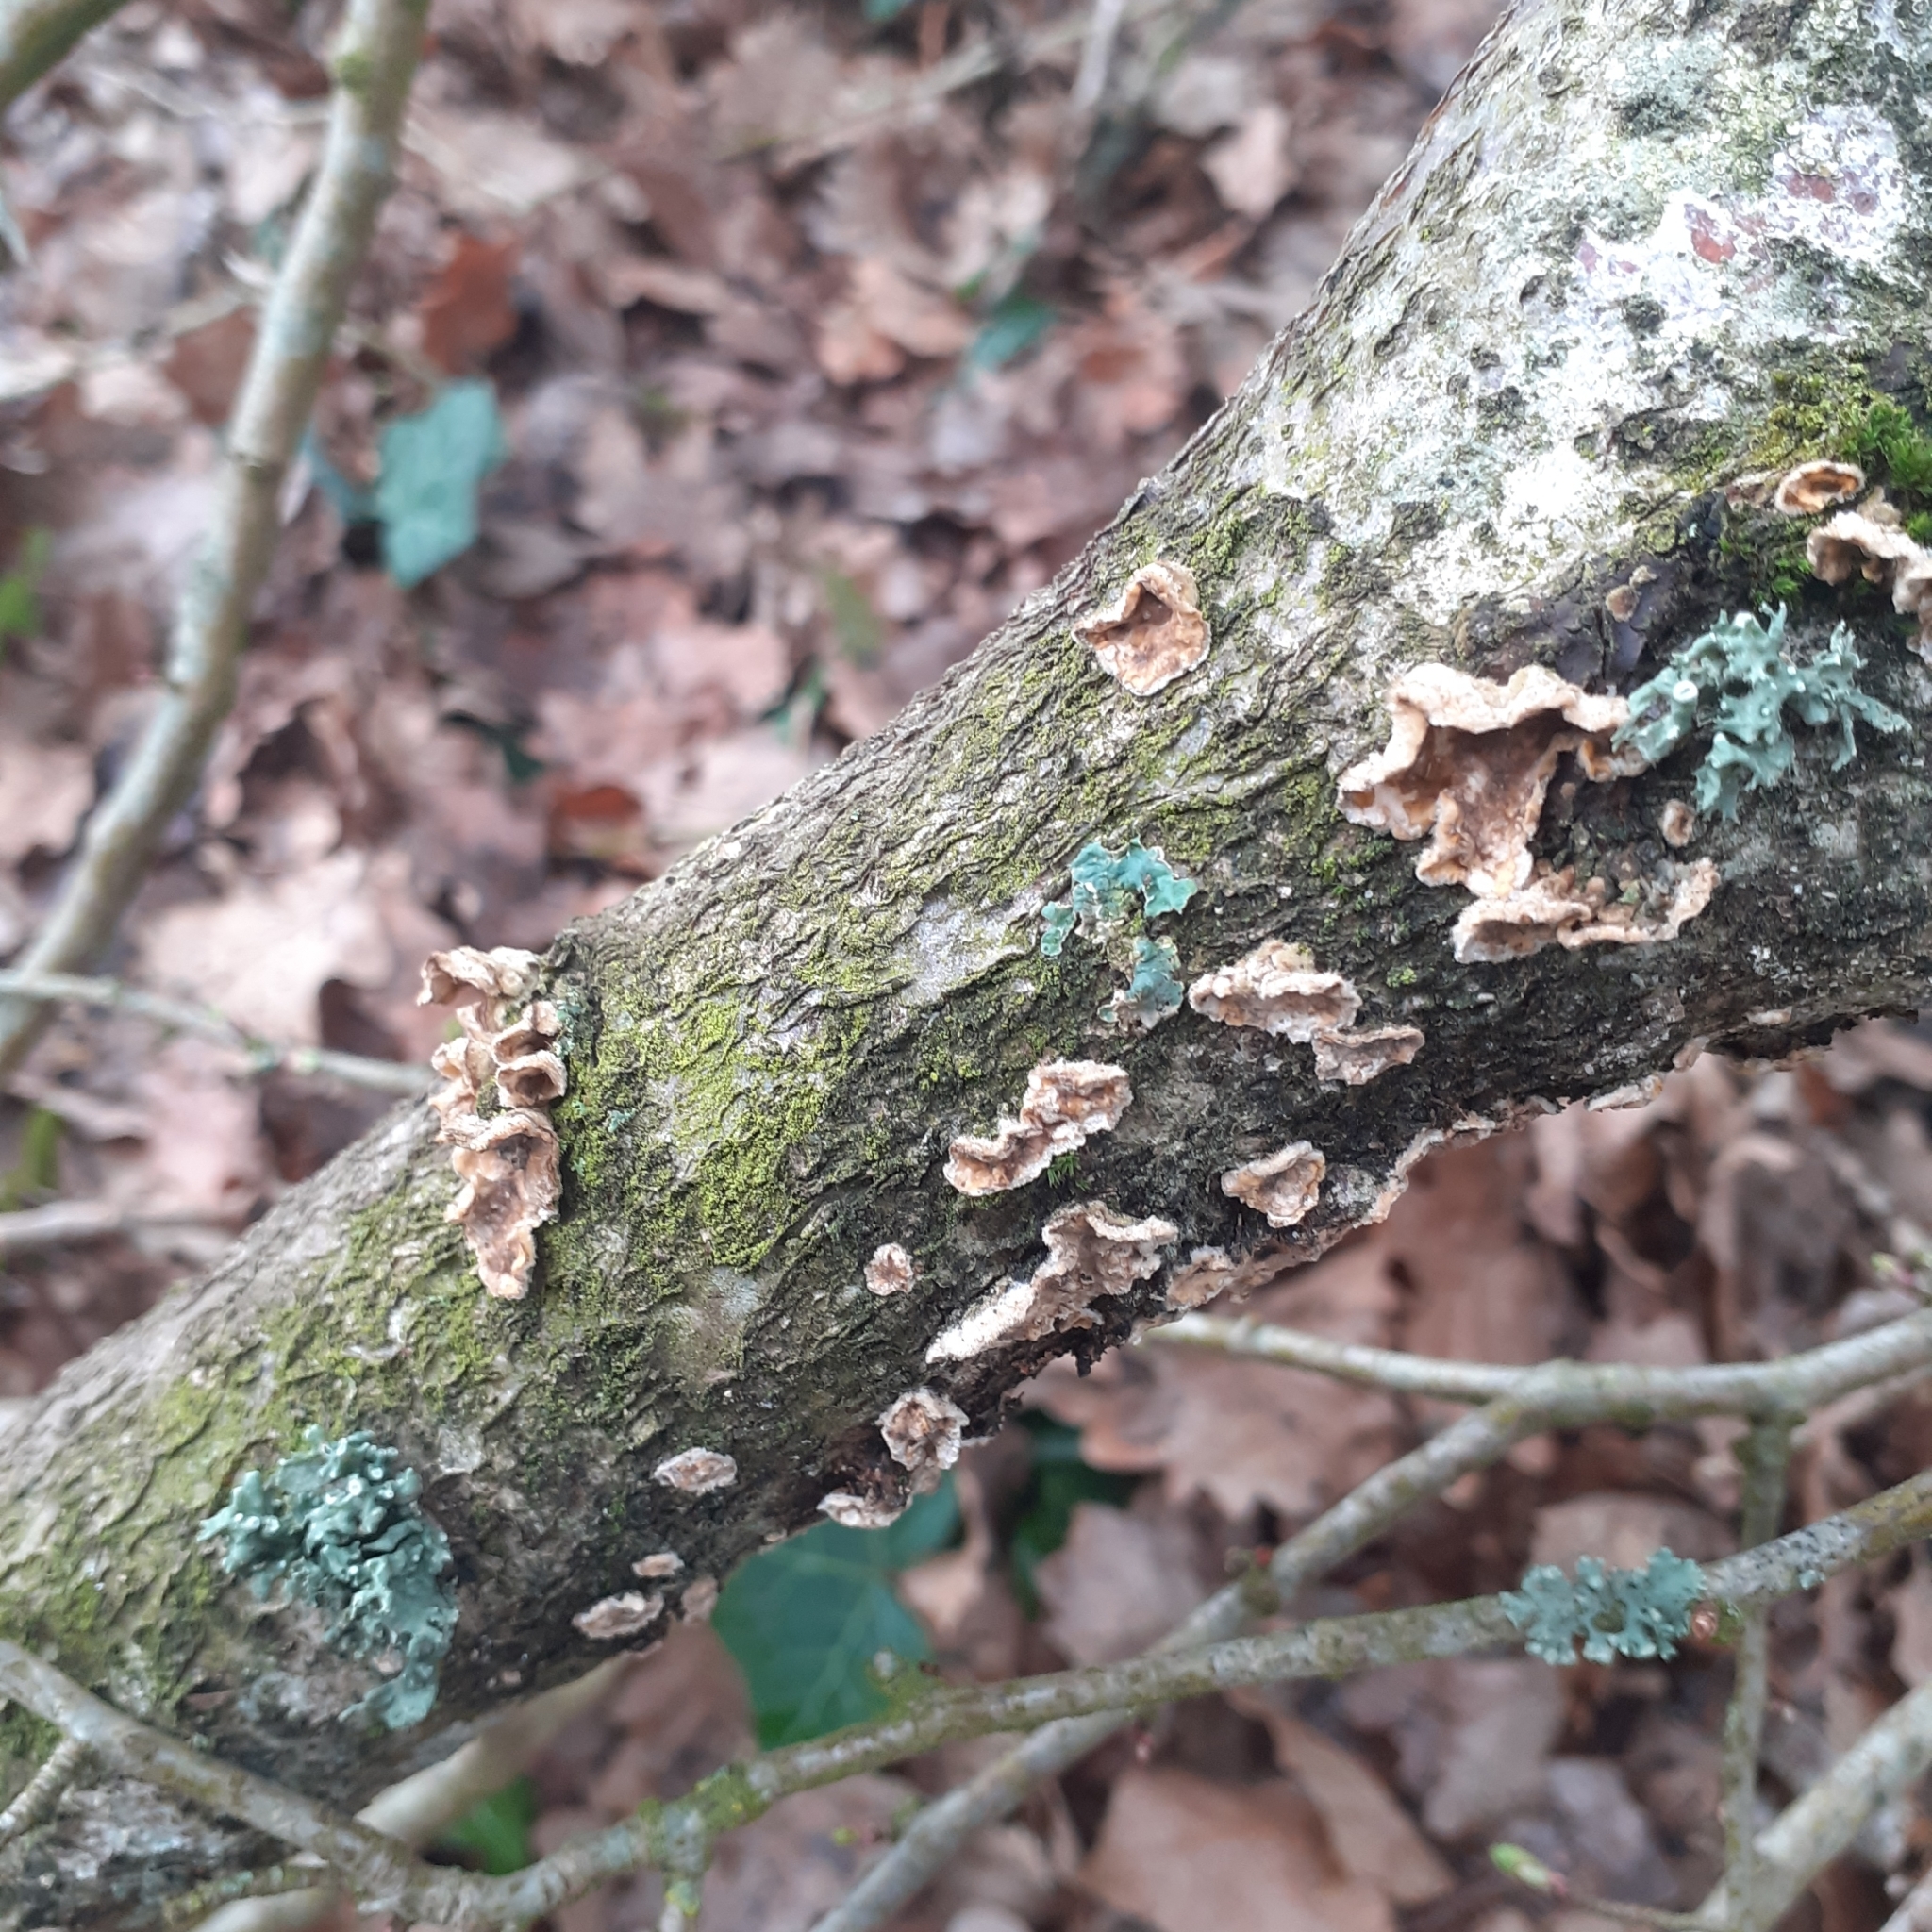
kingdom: Fungi
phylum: Basidiomycota
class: Agaricomycetes
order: Russulales
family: Stereaceae
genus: Stereum
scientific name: Stereum hirsutum
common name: Hairy curtain crust
